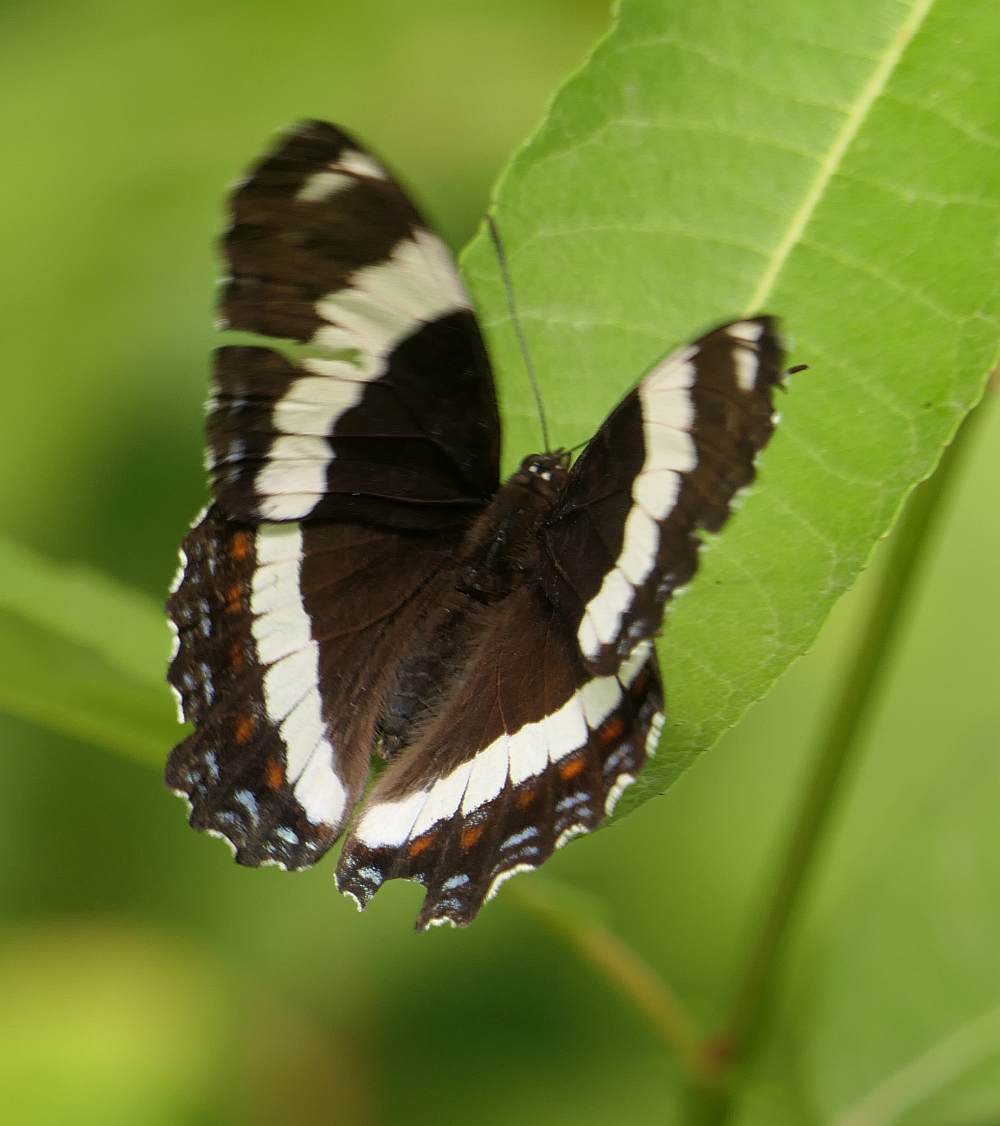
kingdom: Animalia
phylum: Arthropoda
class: Insecta
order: Lepidoptera
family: Nymphalidae
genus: Limenitis
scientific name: Limenitis arthemis
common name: Red-spotted admiral
